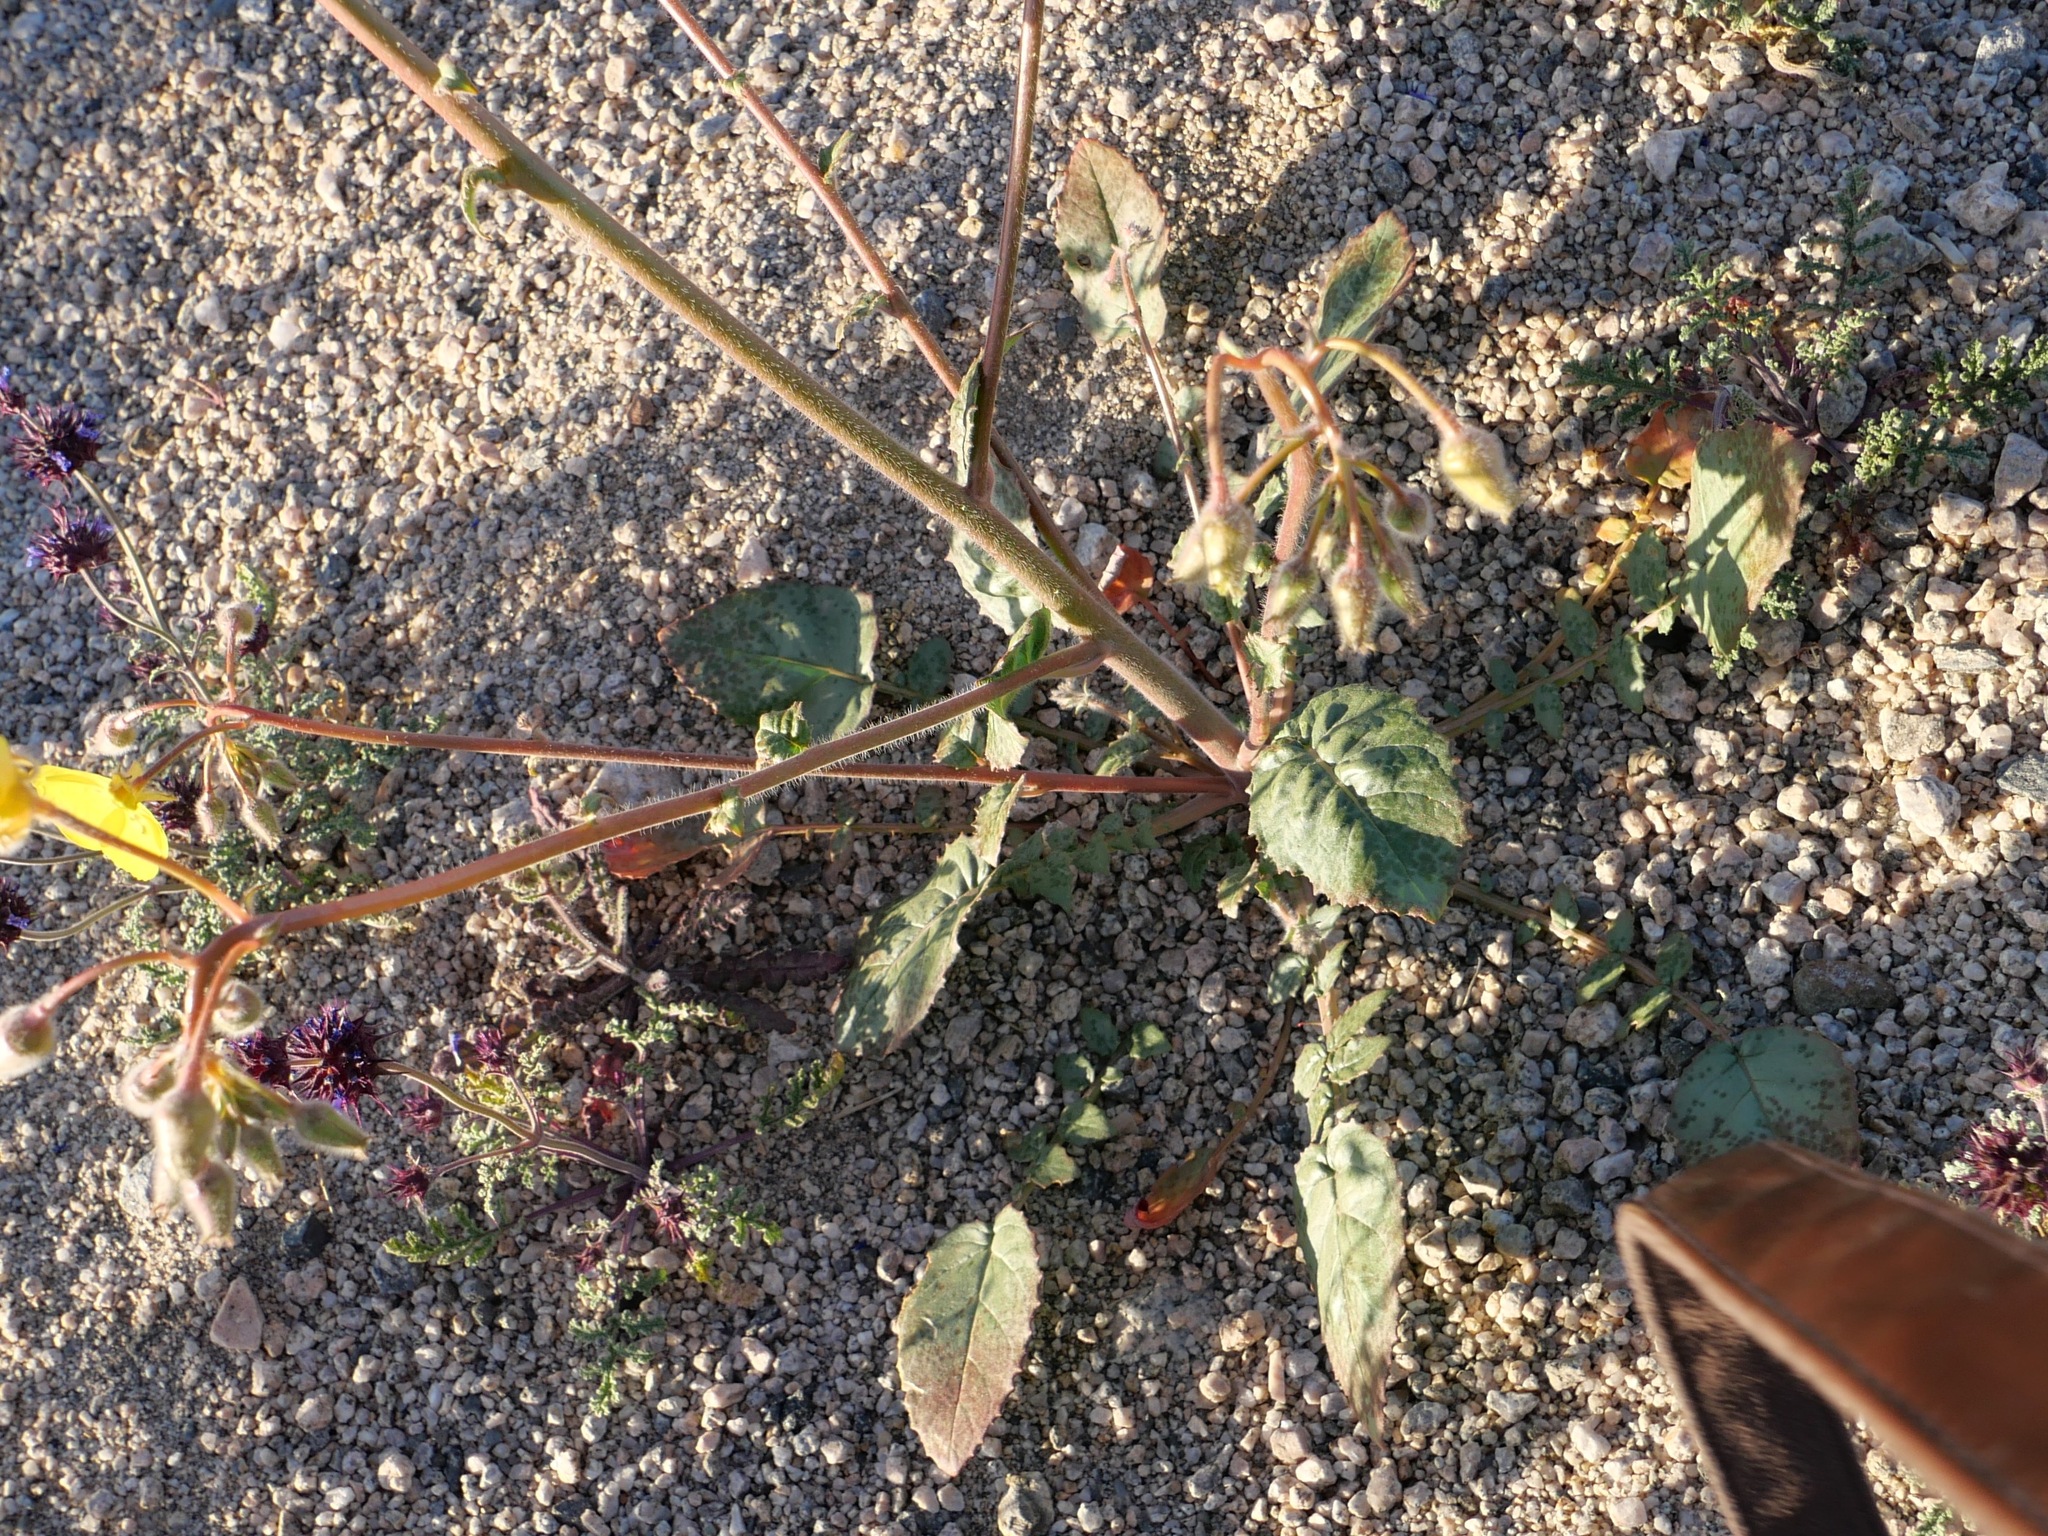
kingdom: Plantae
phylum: Tracheophyta
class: Magnoliopsida
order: Myrtales
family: Onagraceae
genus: Chylismia
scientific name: Chylismia brevipes
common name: Yellow cups
